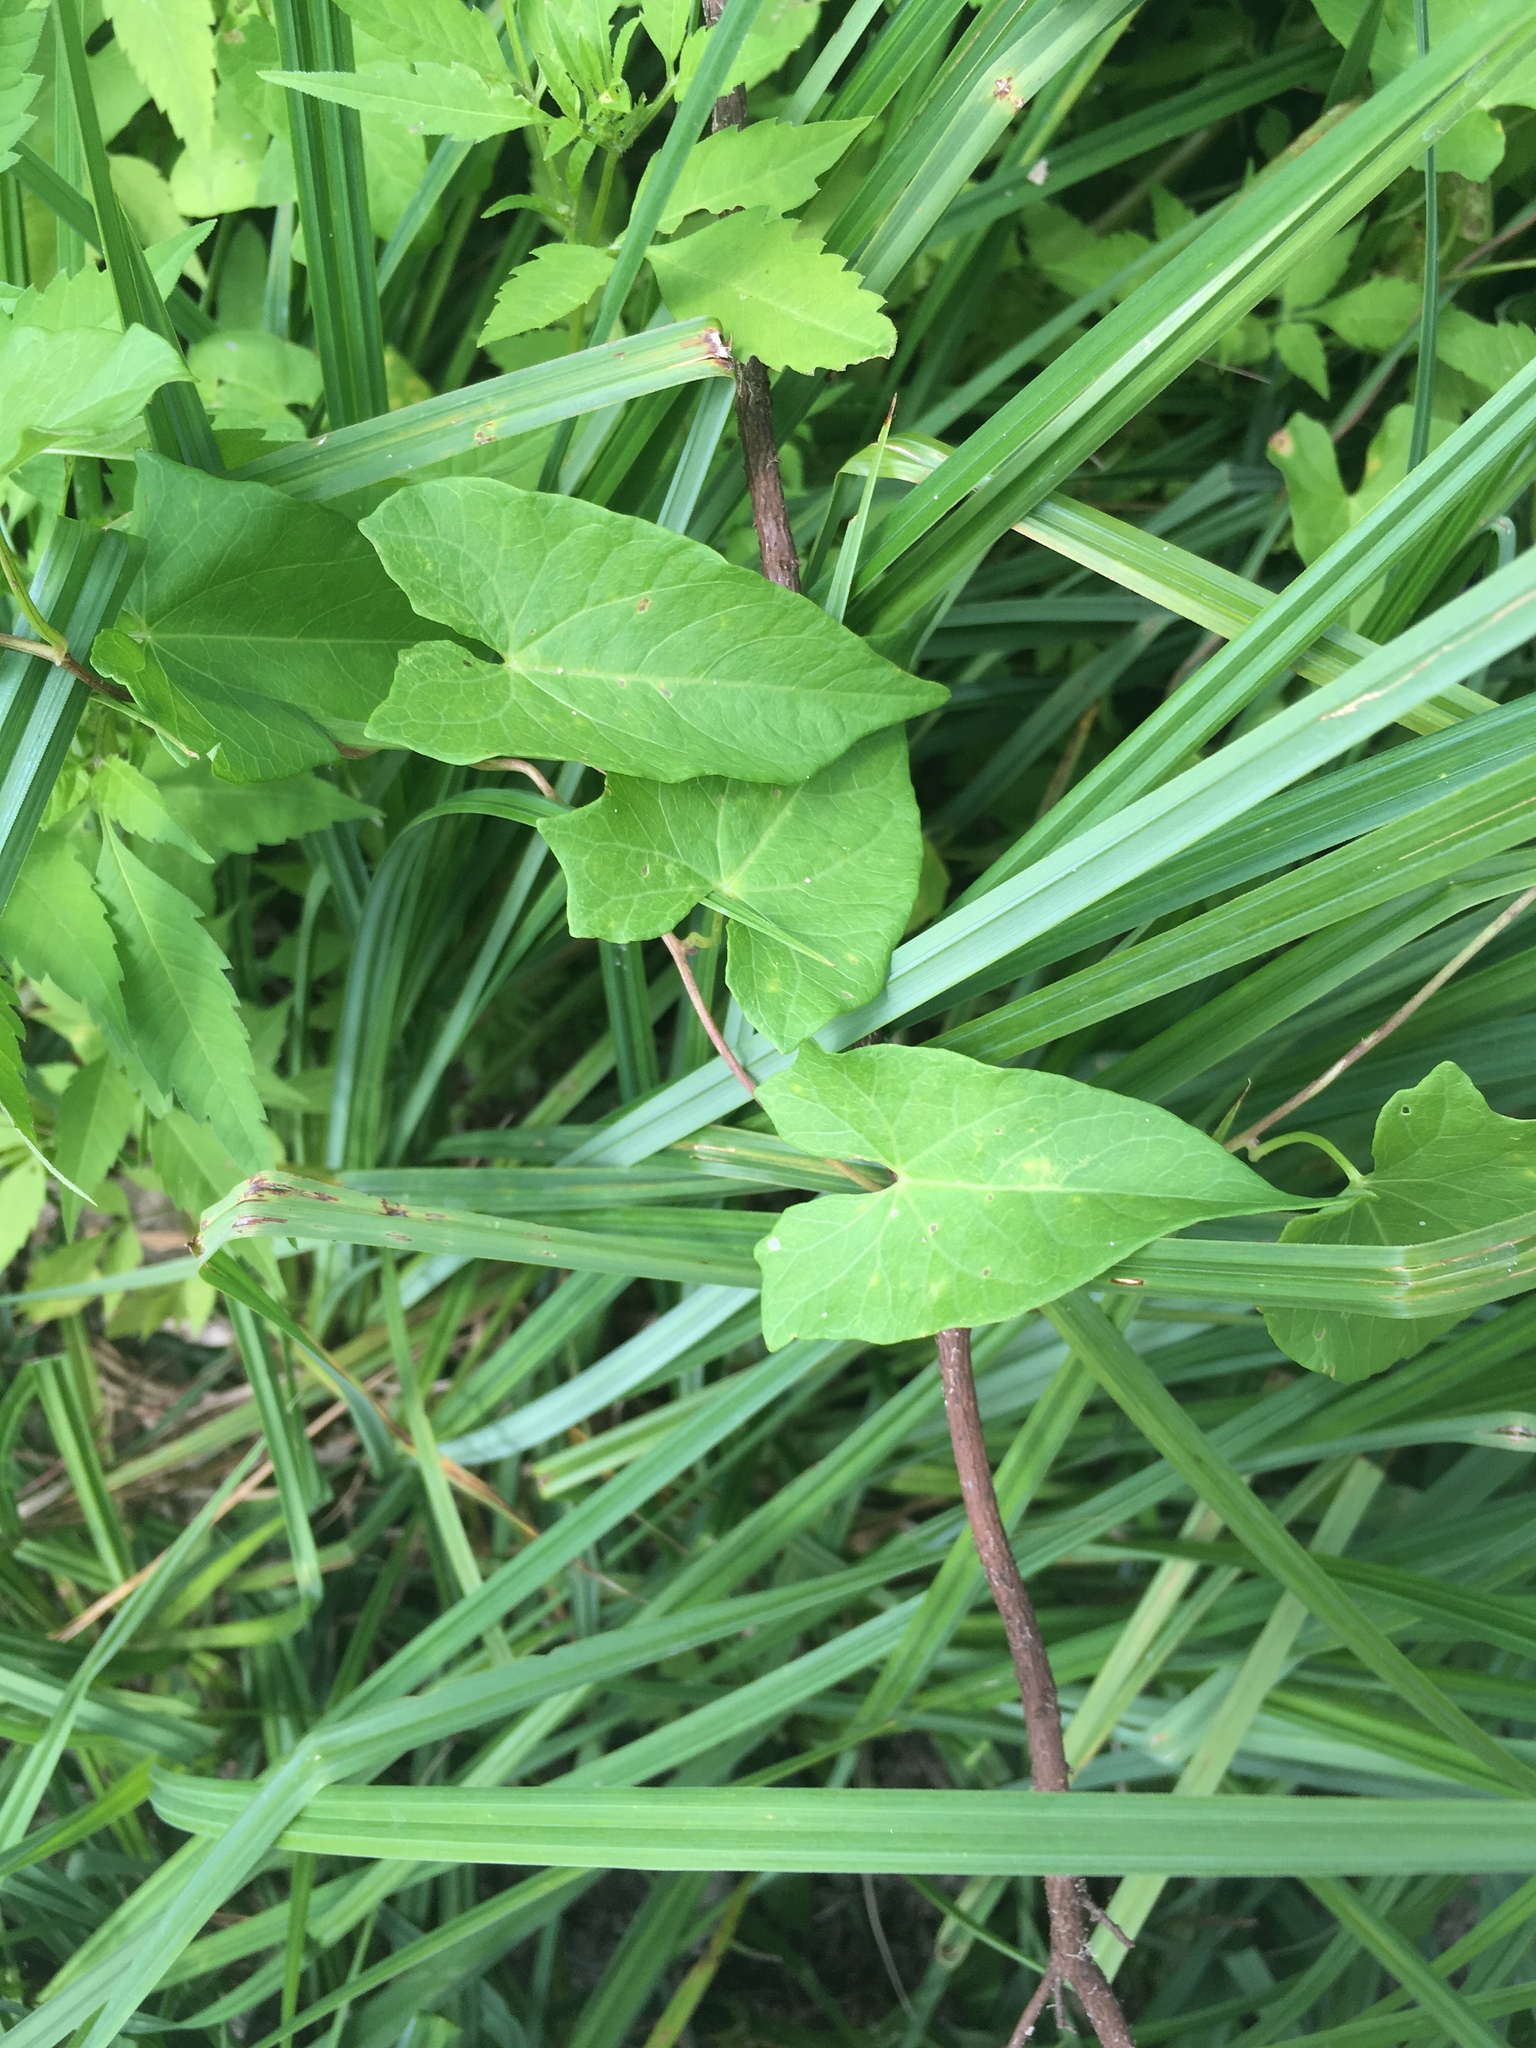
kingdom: Plantae
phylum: Tracheophyta
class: Magnoliopsida
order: Solanales
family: Convolvulaceae
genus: Calystegia
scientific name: Calystegia sepium
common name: Hedge bindweed
